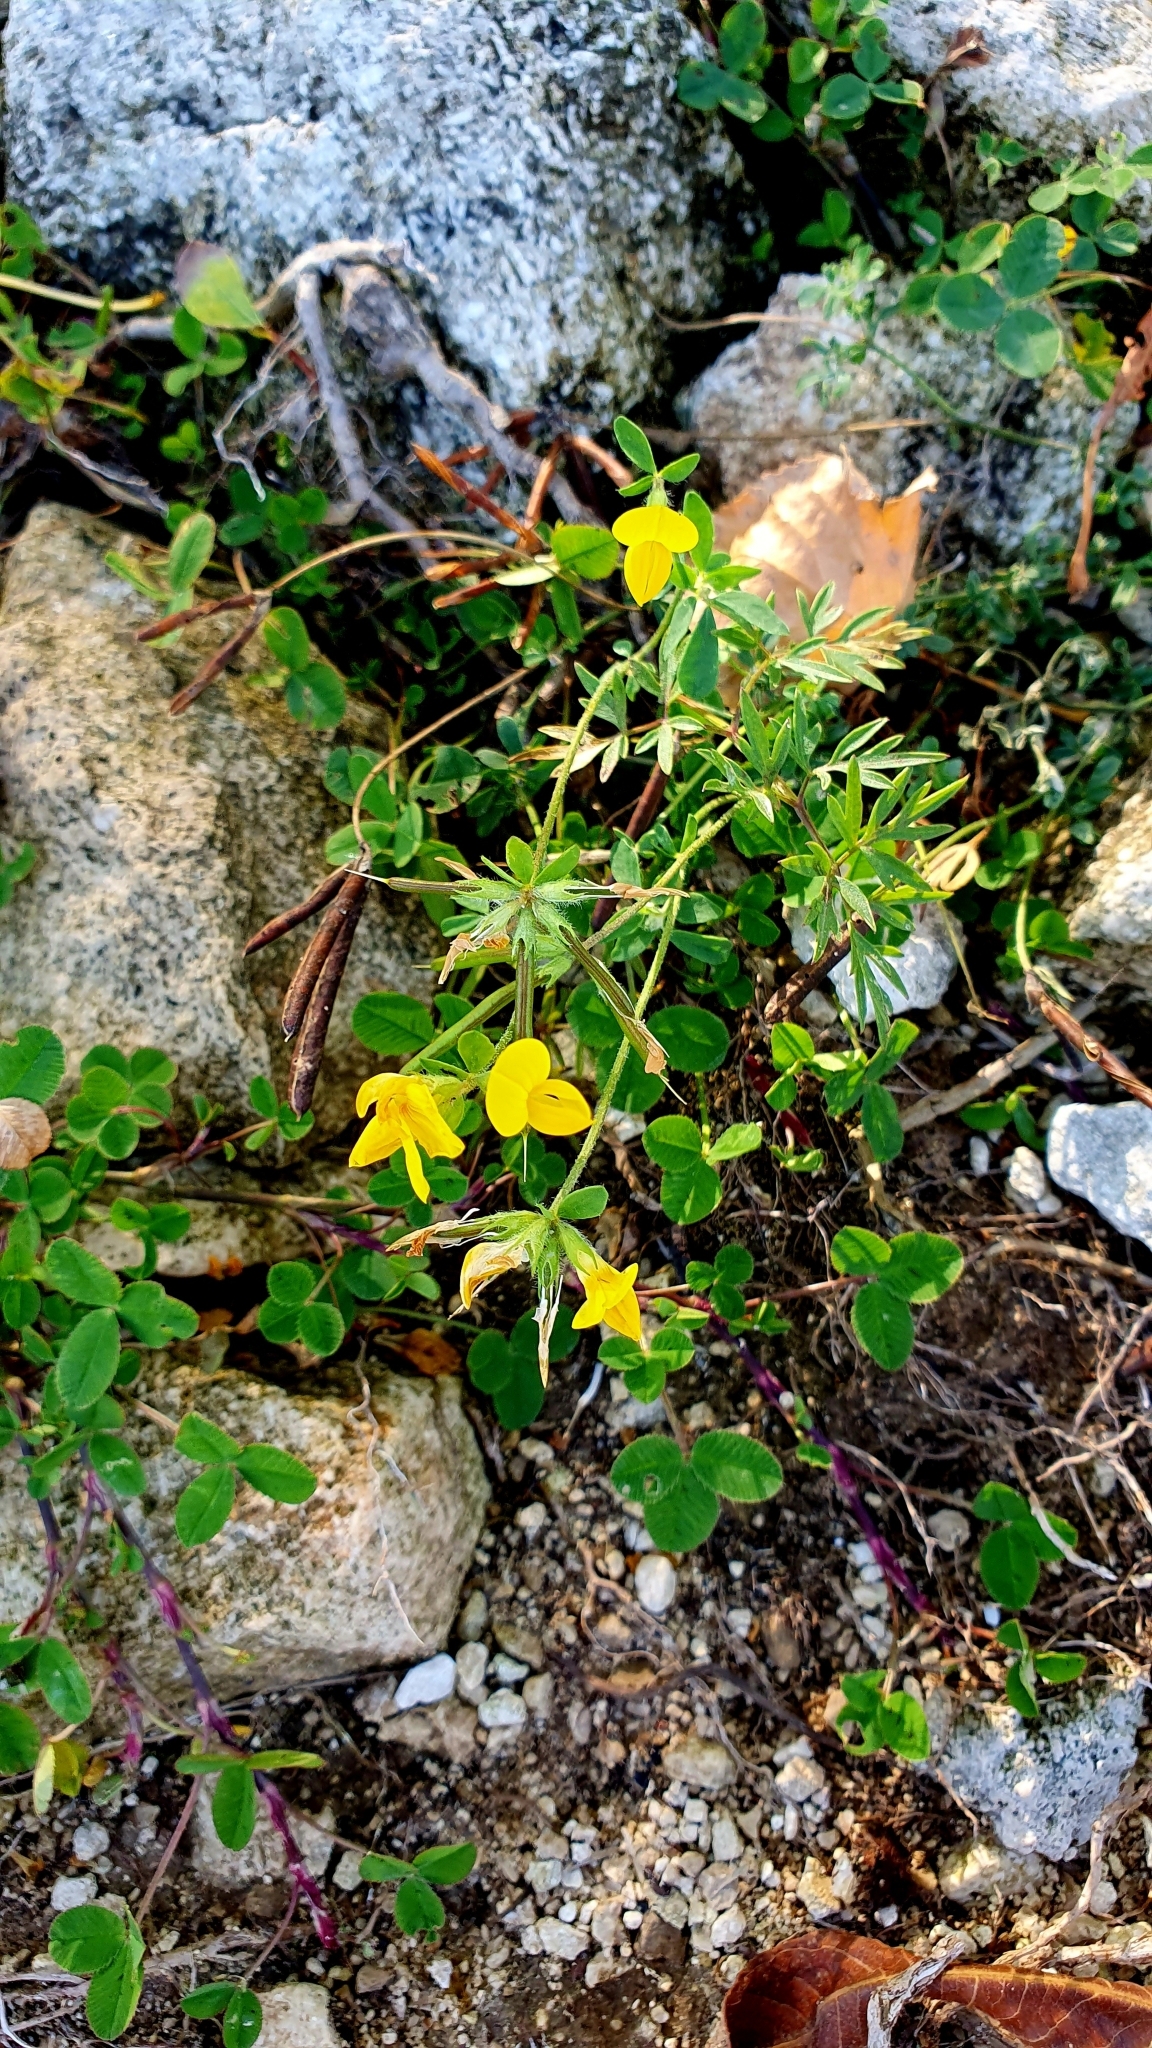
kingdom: Plantae
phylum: Tracheophyta
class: Magnoliopsida
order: Fabales
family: Fabaceae
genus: Lotus
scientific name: Lotus corniculatus
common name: Common bird's-foot-trefoil
